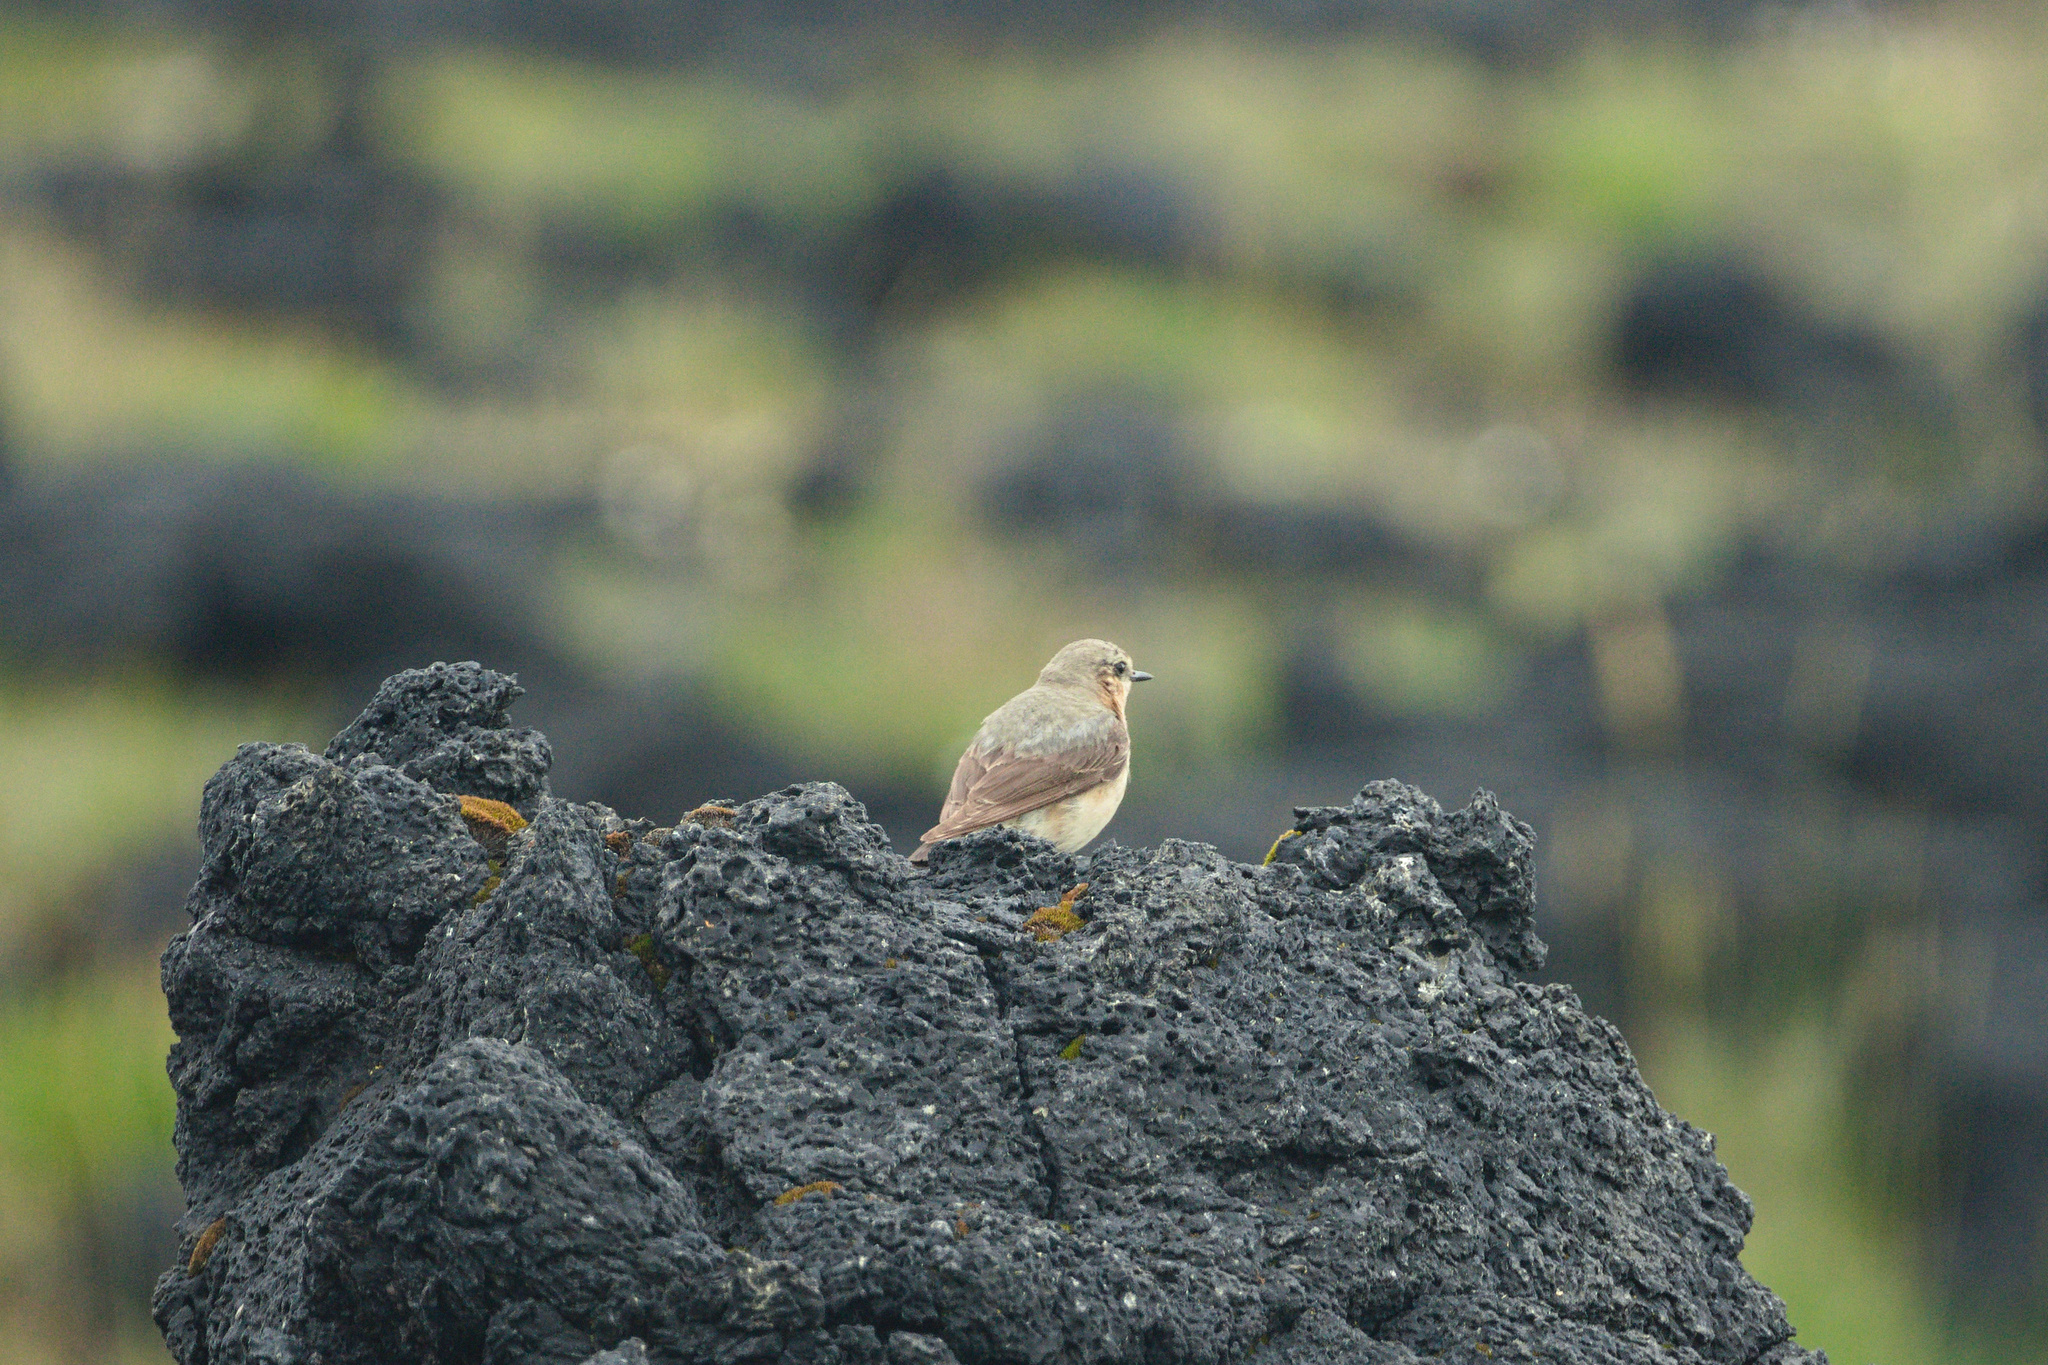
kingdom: Animalia
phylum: Chordata
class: Aves
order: Passeriformes
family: Muscicapidae
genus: Oenanthe
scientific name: Oenanthe oenanthe
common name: Northern wheatear
